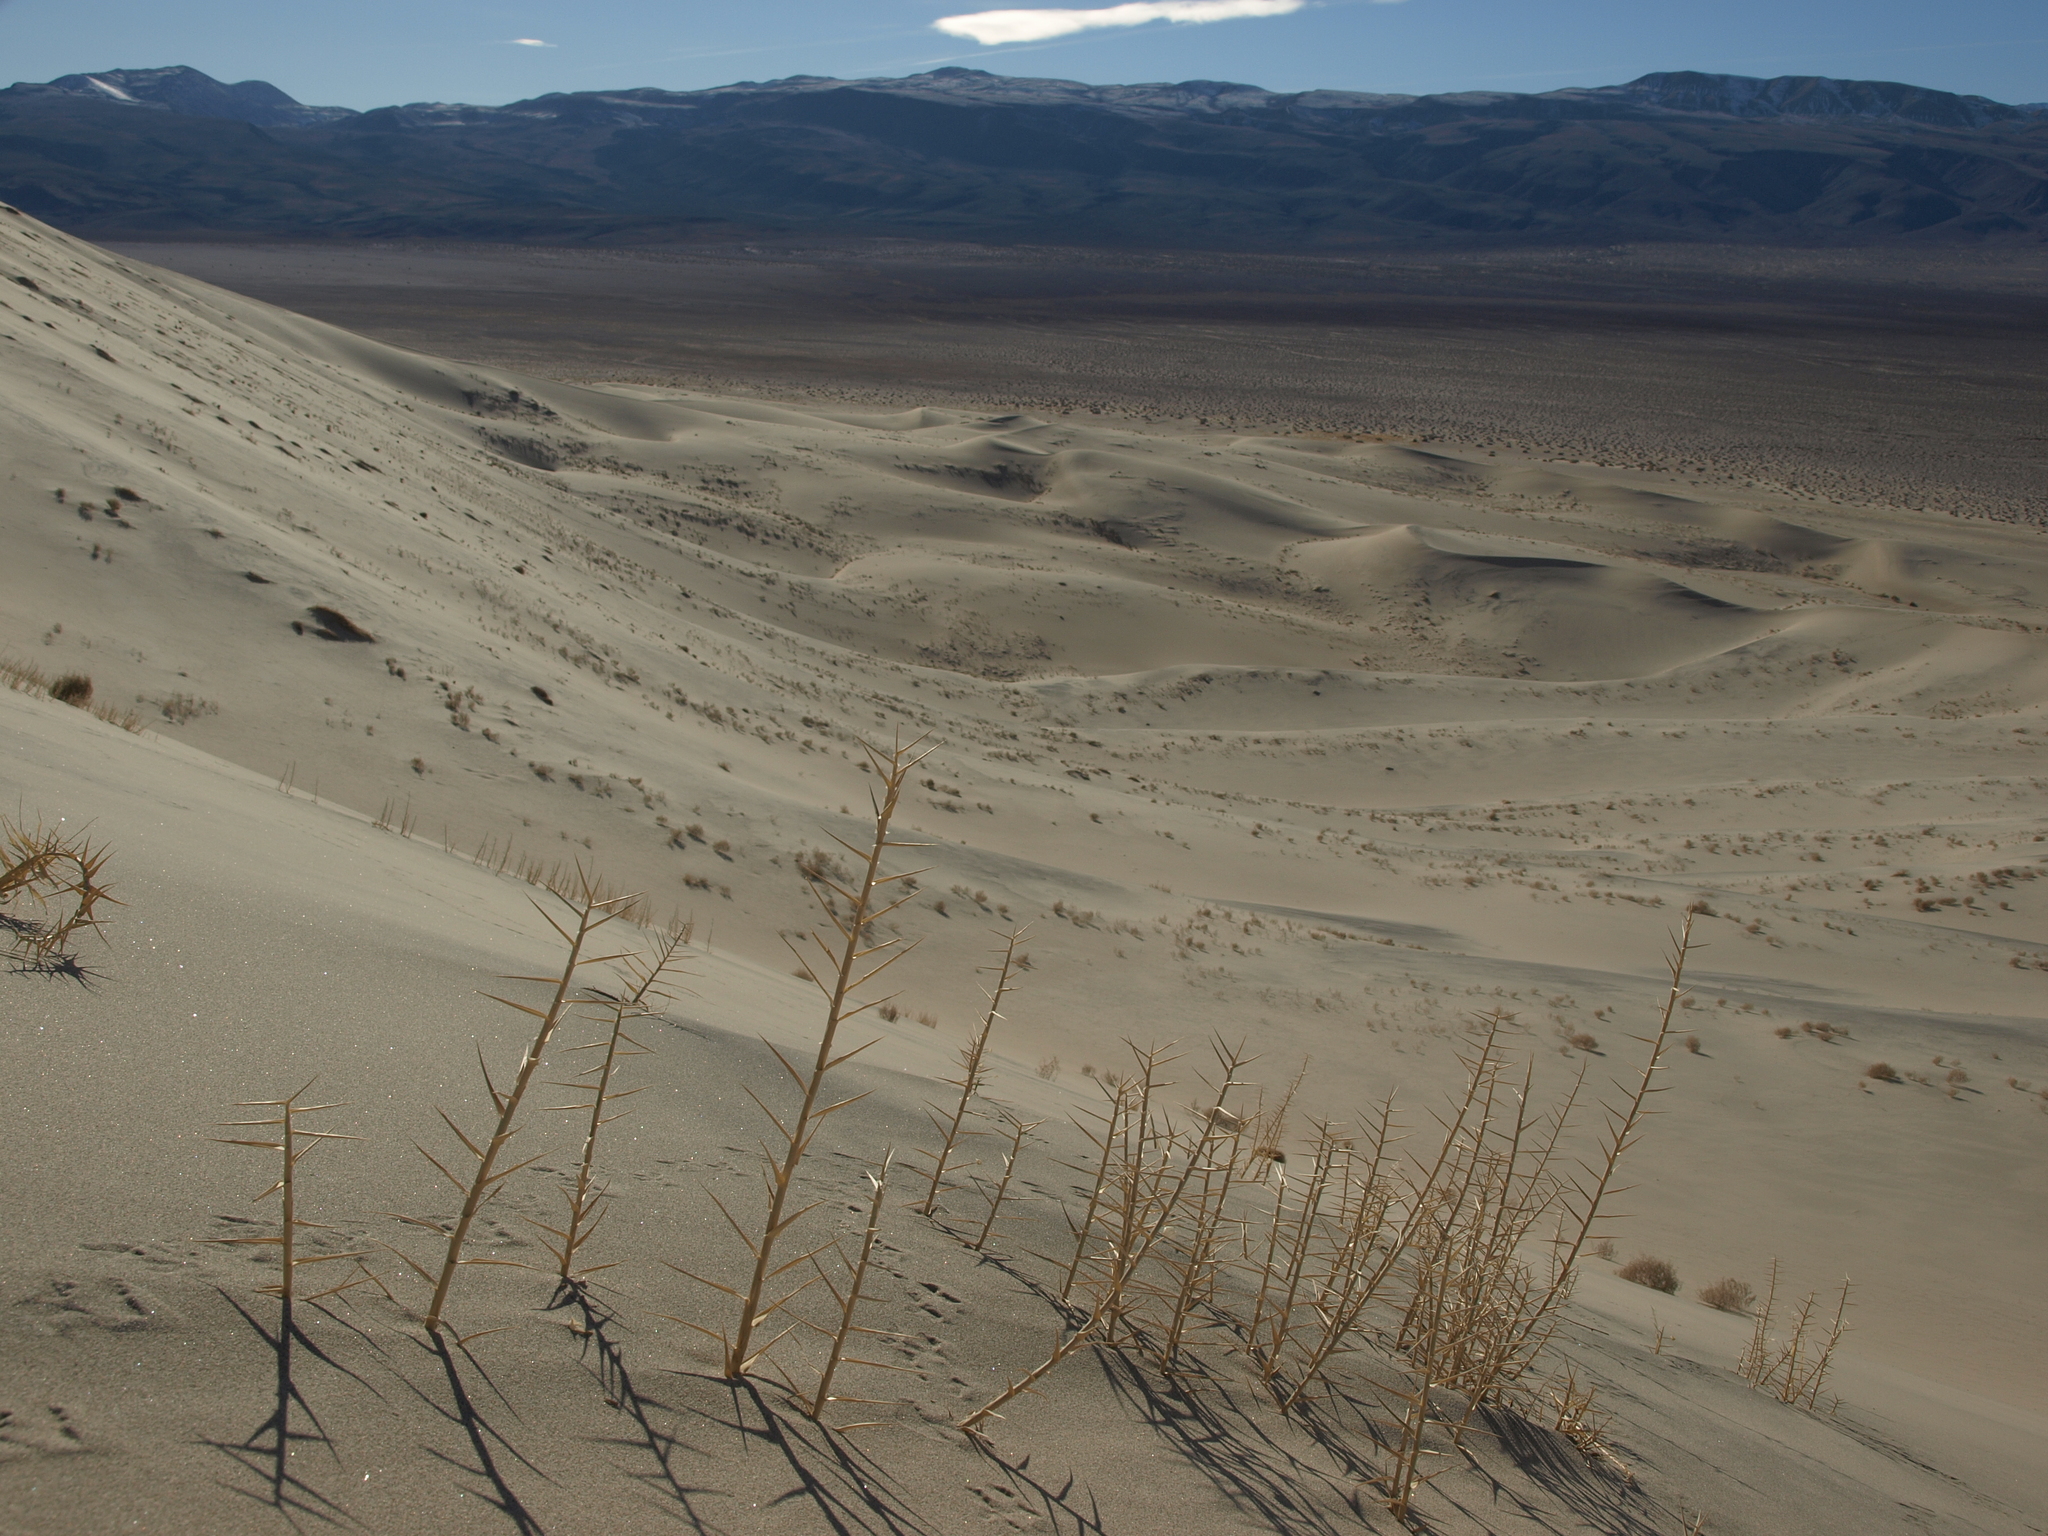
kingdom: Plantae
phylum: Tracheophyta
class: Liliopsida
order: Poales
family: Poaceae
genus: Swallenia
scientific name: Swallenia alexandrae
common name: Eureka dune grass
